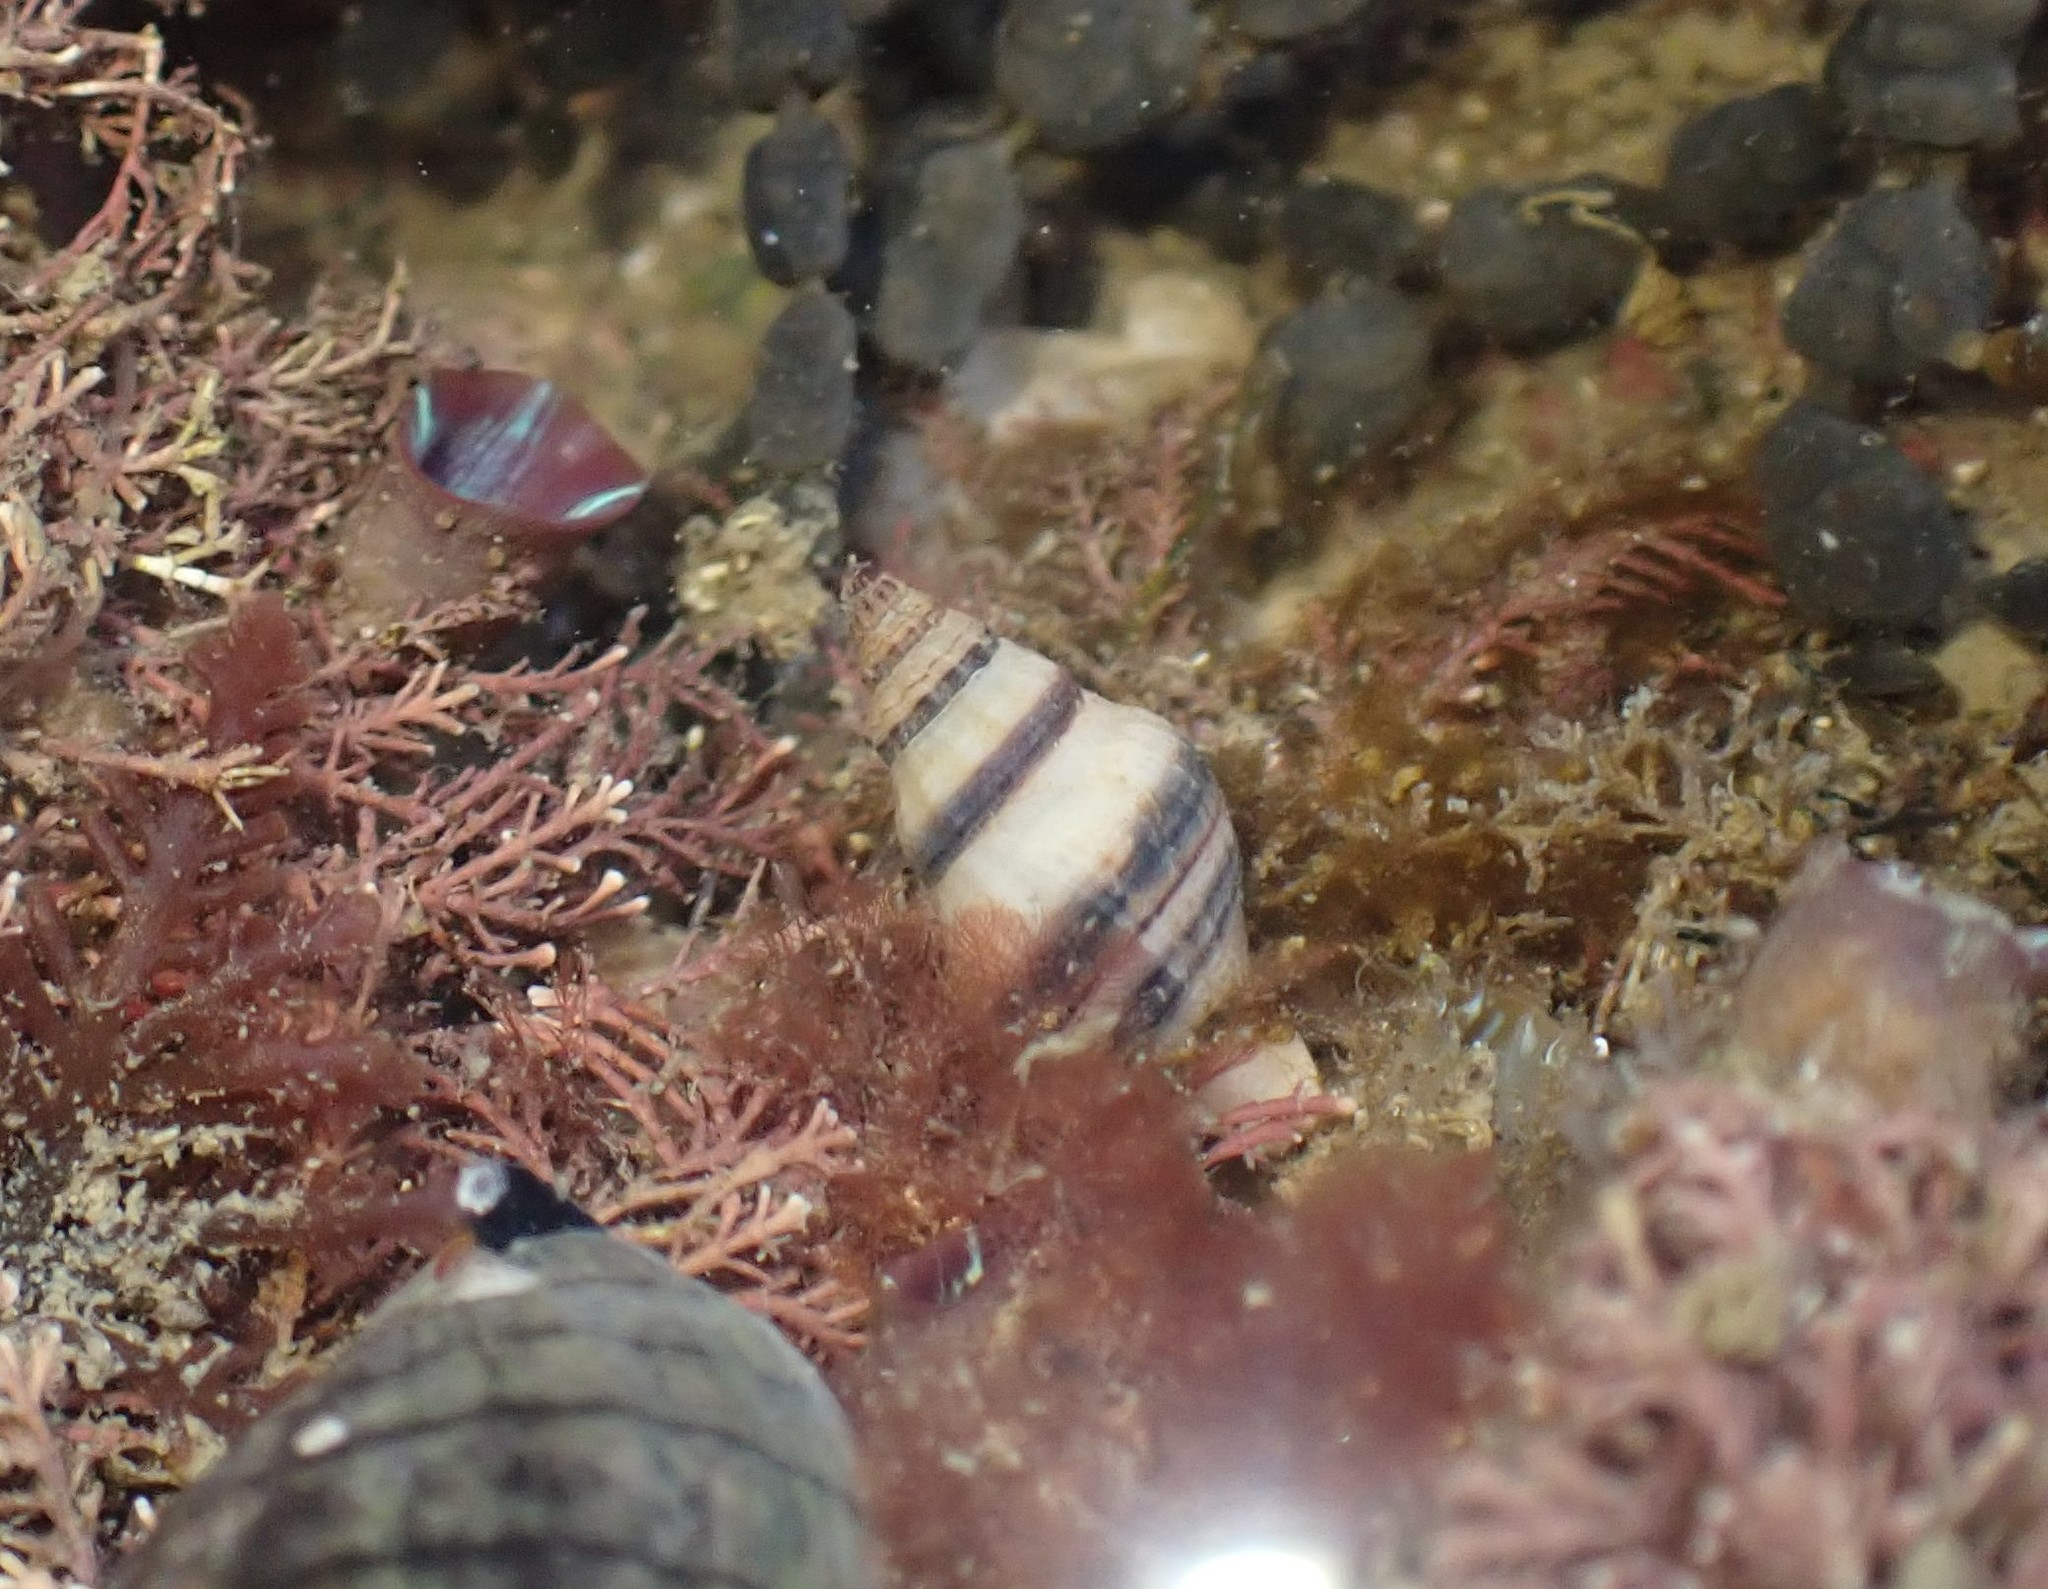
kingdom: Animalia
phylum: Mollusca
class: Gastropoda
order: Neogastropoda
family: Tudiclidae
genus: Buccinulum
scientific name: Buccinulum vittatum
